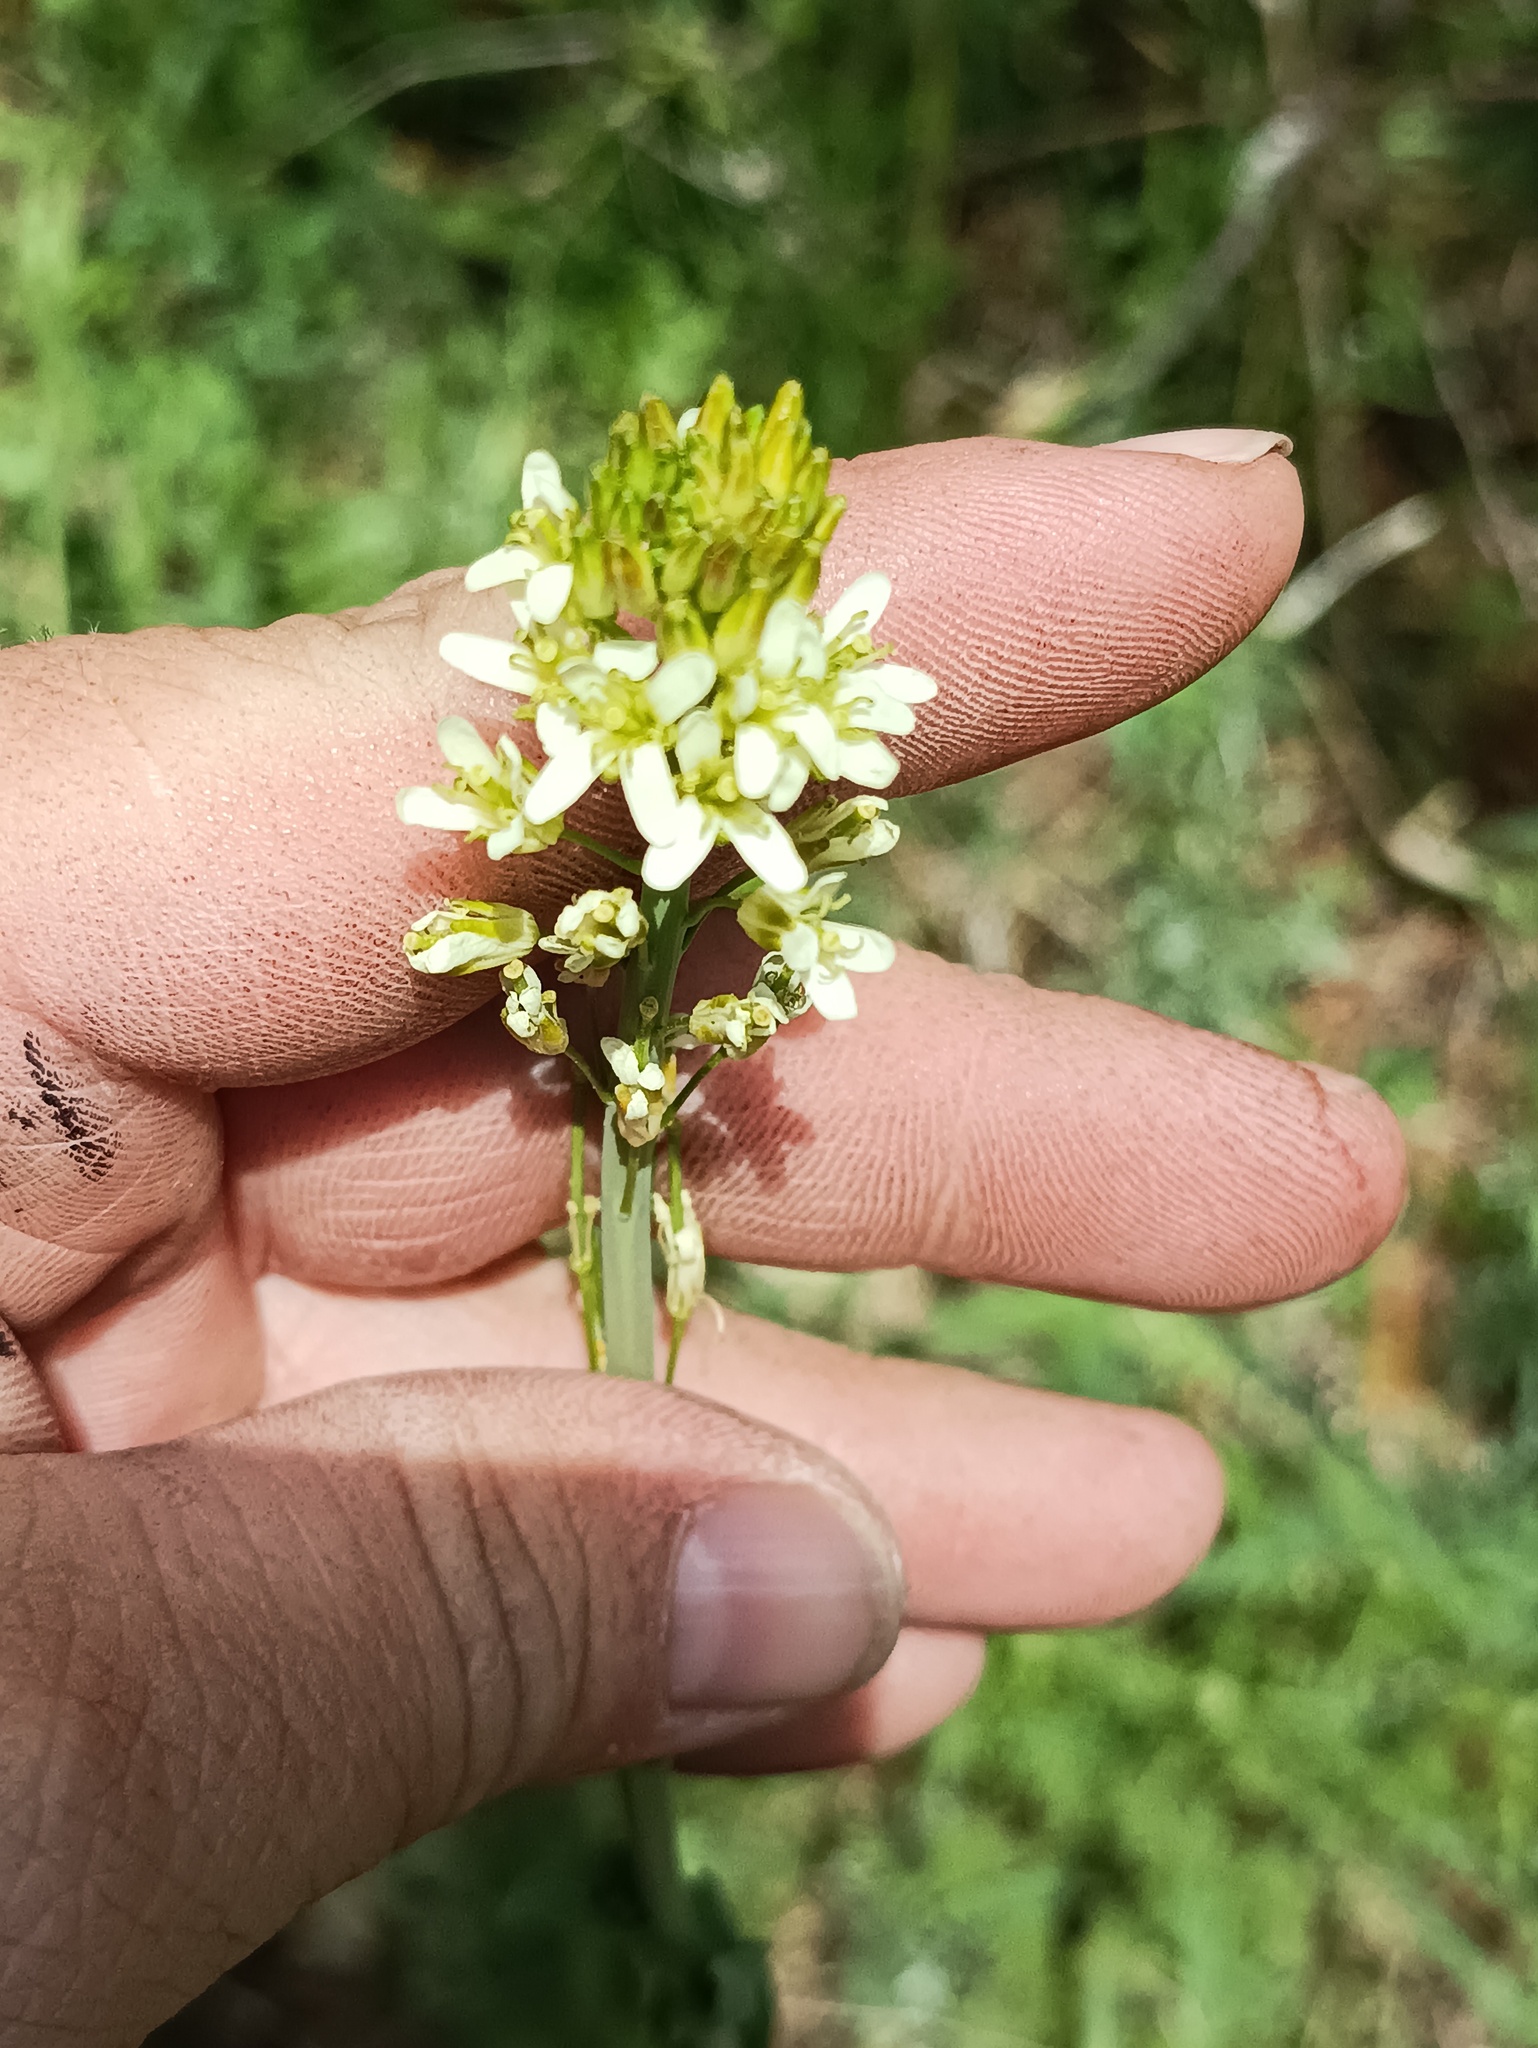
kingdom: Plantae
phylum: Tracheophyta
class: Magnoliopsida
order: Brassicales
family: Brassicaceae
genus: Turritis
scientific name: Turritis glabra
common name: Tower rockcress
